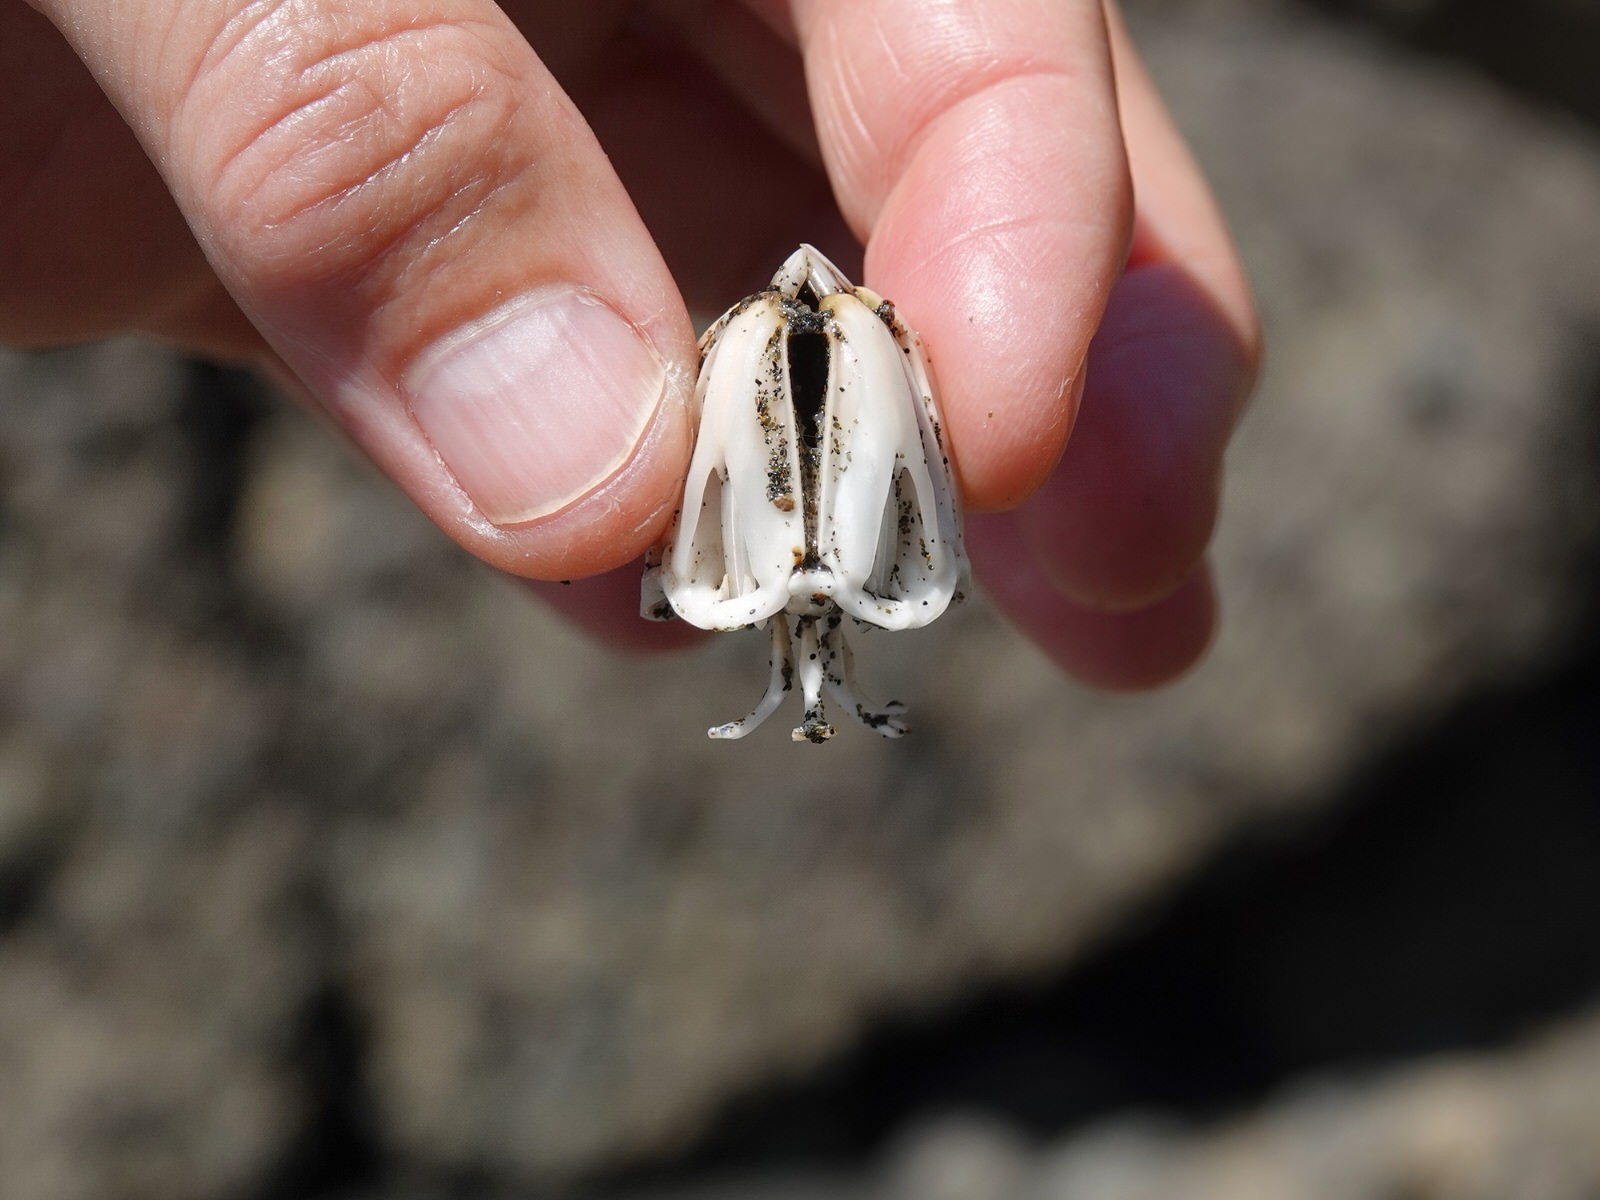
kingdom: Animalia
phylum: Echinodermata
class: Echinoidea
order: Camarodonta
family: Echinometridae
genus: Evechinus
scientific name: Evechinus chloroticus
